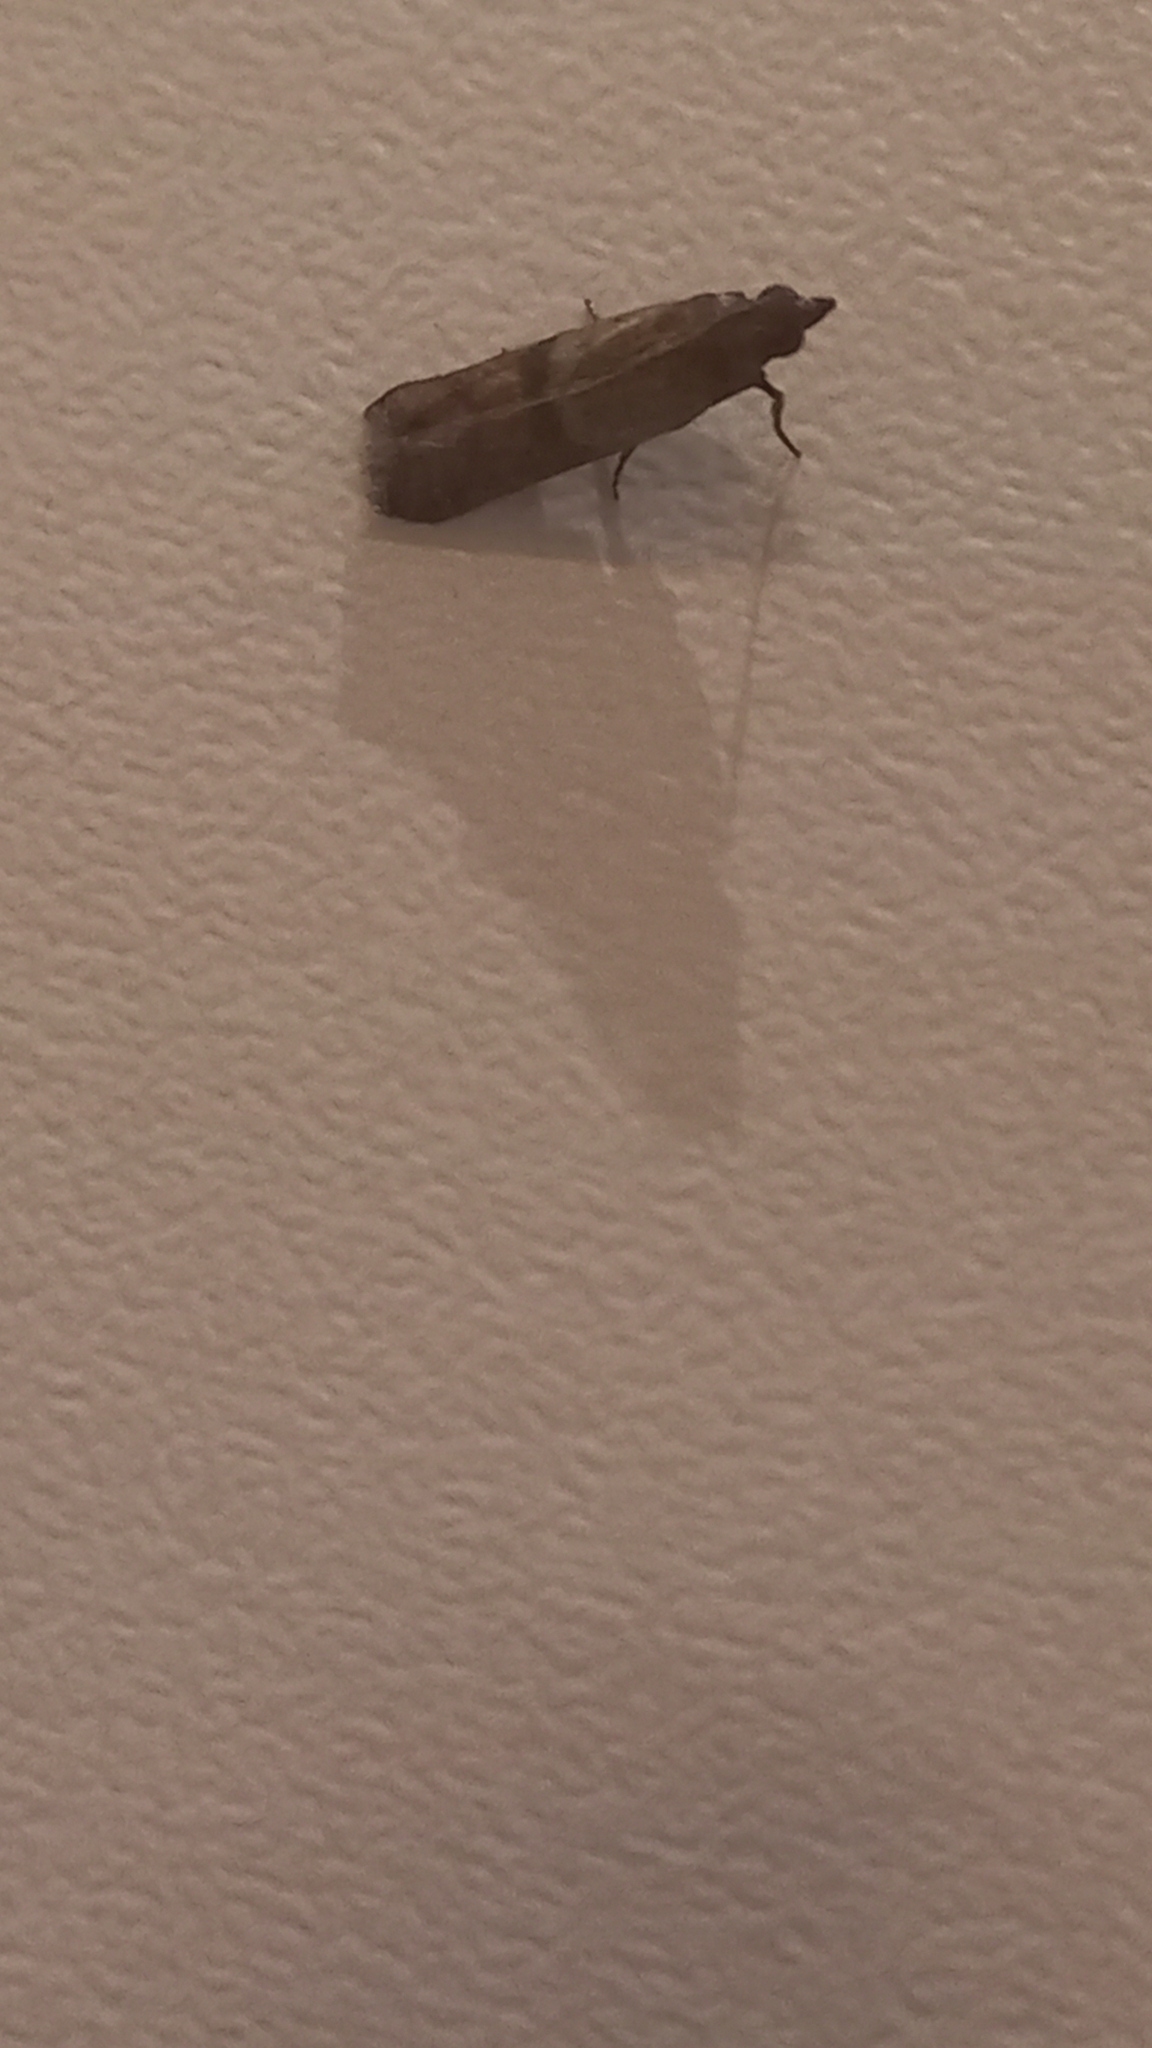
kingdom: Animalia
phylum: Arthropoda
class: Insecta
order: Lepidoptera
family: Pyralidae
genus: Plodia
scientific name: Plodia interpunctella
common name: Indian meal moth
